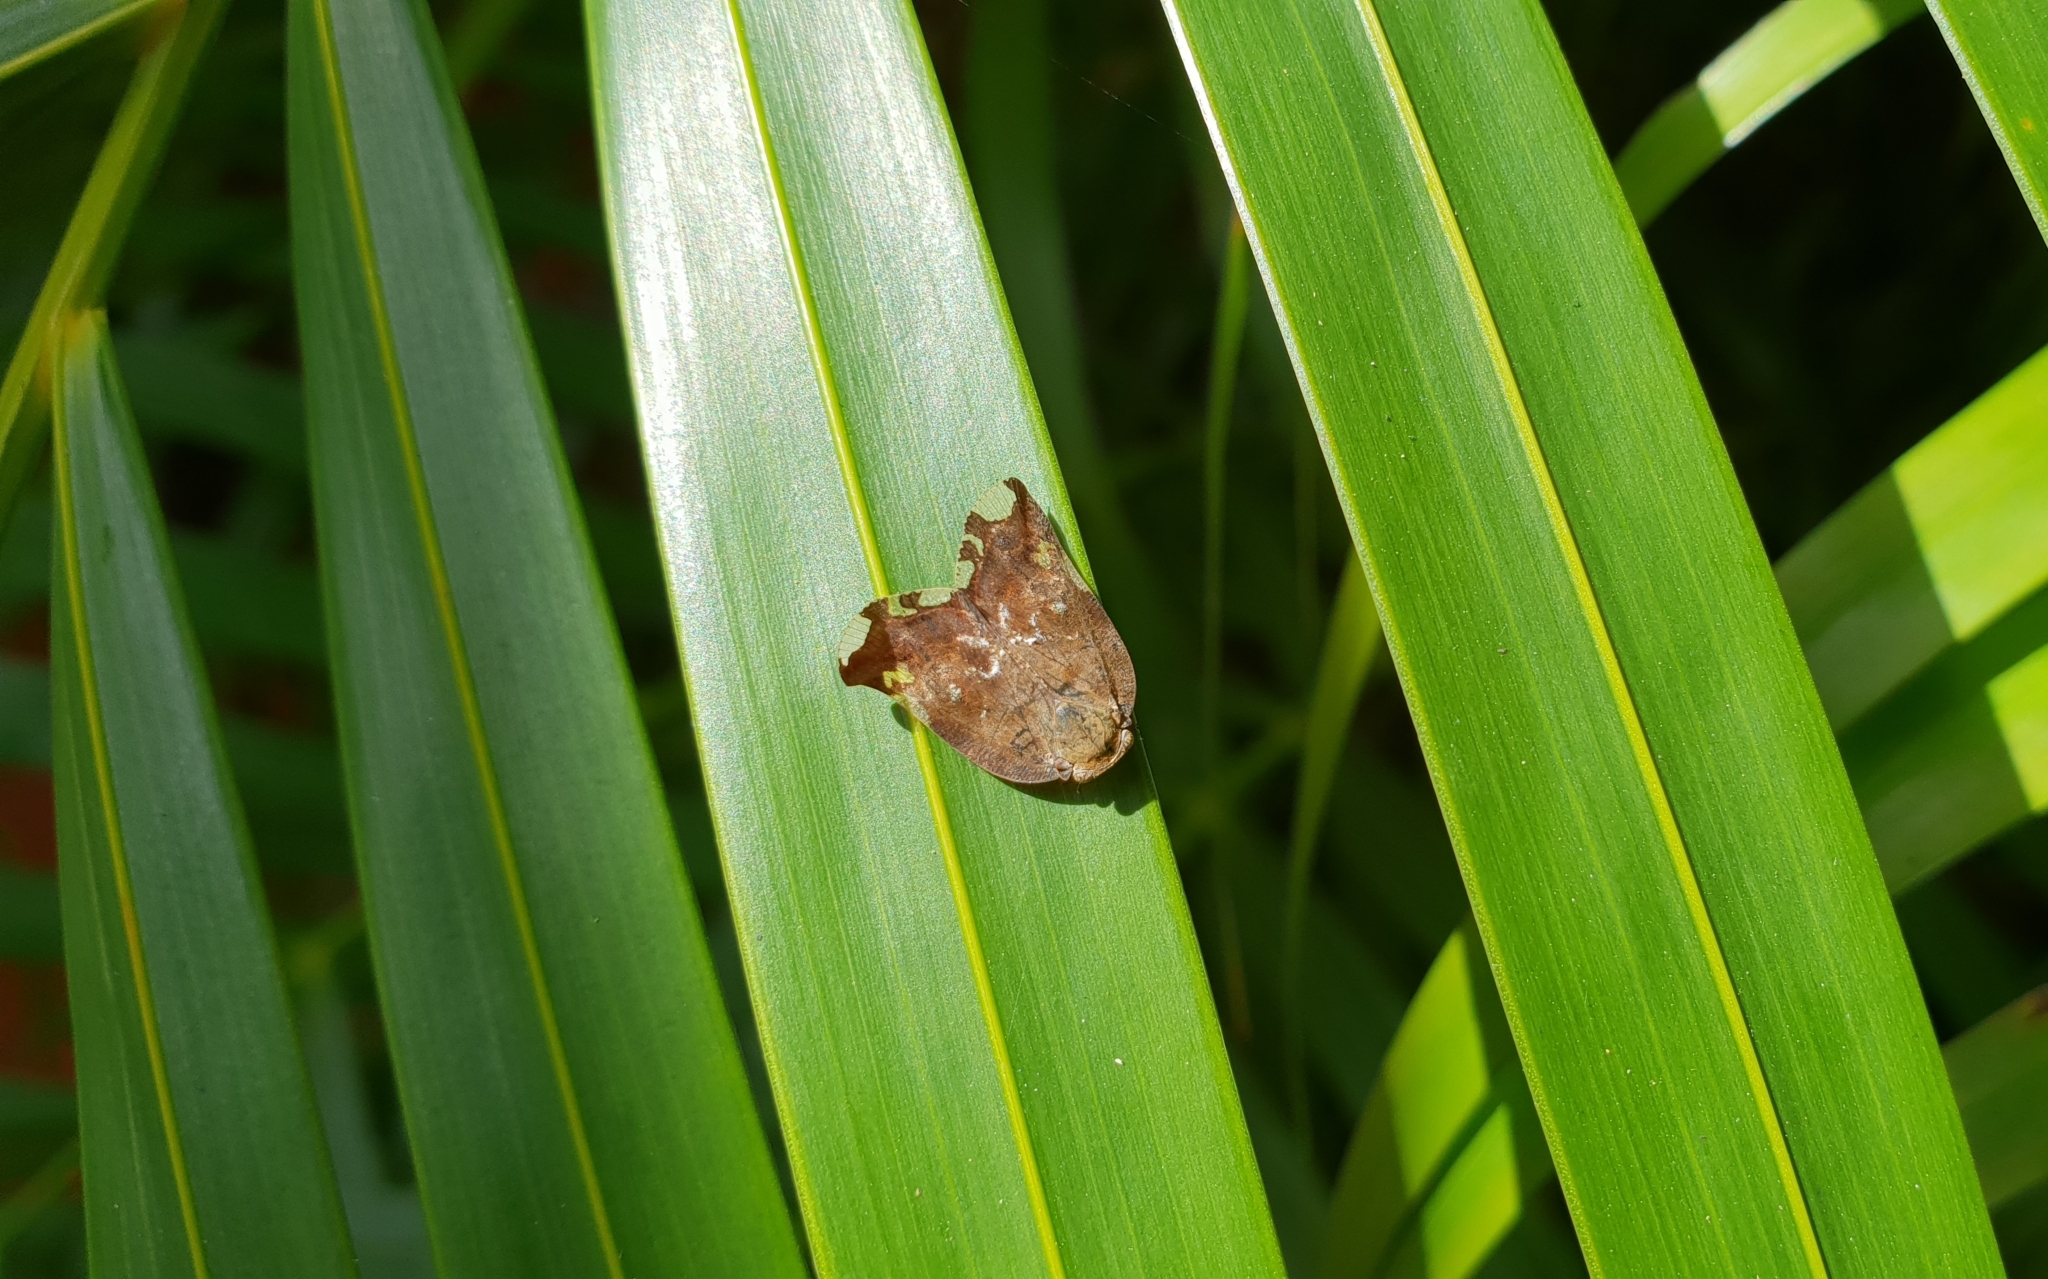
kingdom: Animalia
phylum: Arthropoda
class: Insecta
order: Hemiptera
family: Ricaniidae
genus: Ricania
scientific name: Ricania speculum
